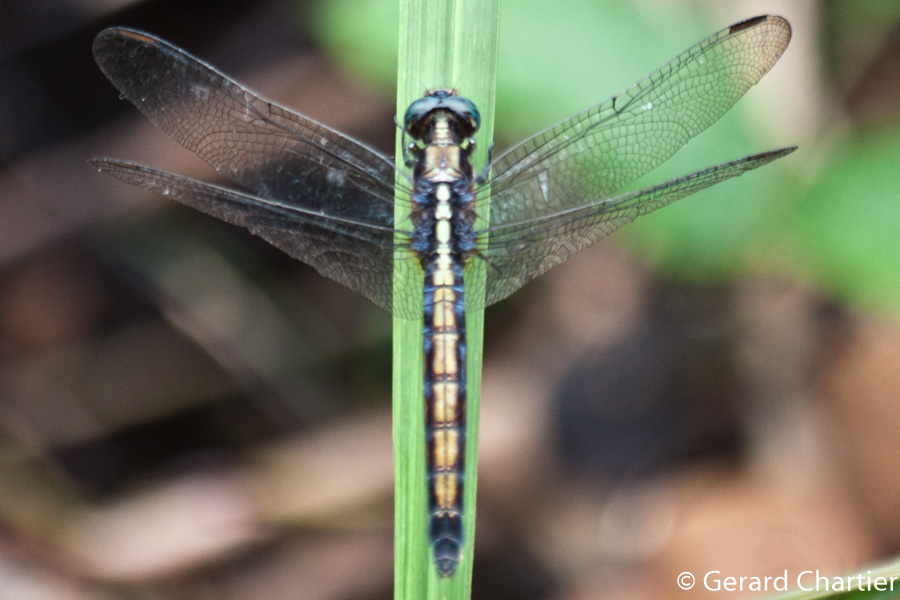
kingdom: Animalia
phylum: Arthropoda
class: Insecta
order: Odonata
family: Libellulidae
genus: Orthetrum
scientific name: Orthetrum glaucum
